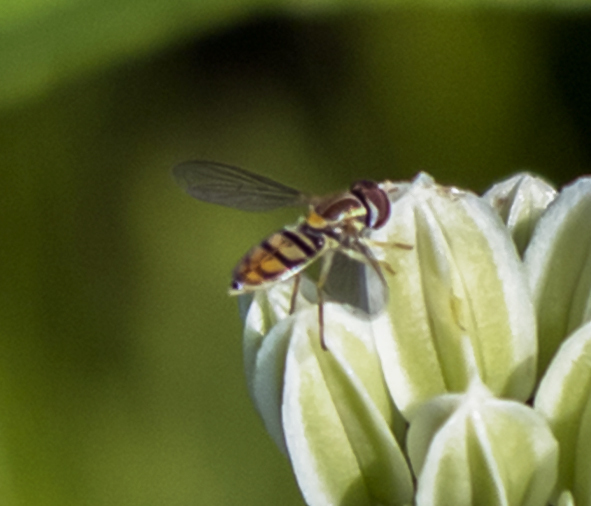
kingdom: Animalia
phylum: Arthropoda
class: Insecta
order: Diptera
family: Syrphidae
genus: Toxomerus
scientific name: Toxomerus marginatus
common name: Syrphid fly
